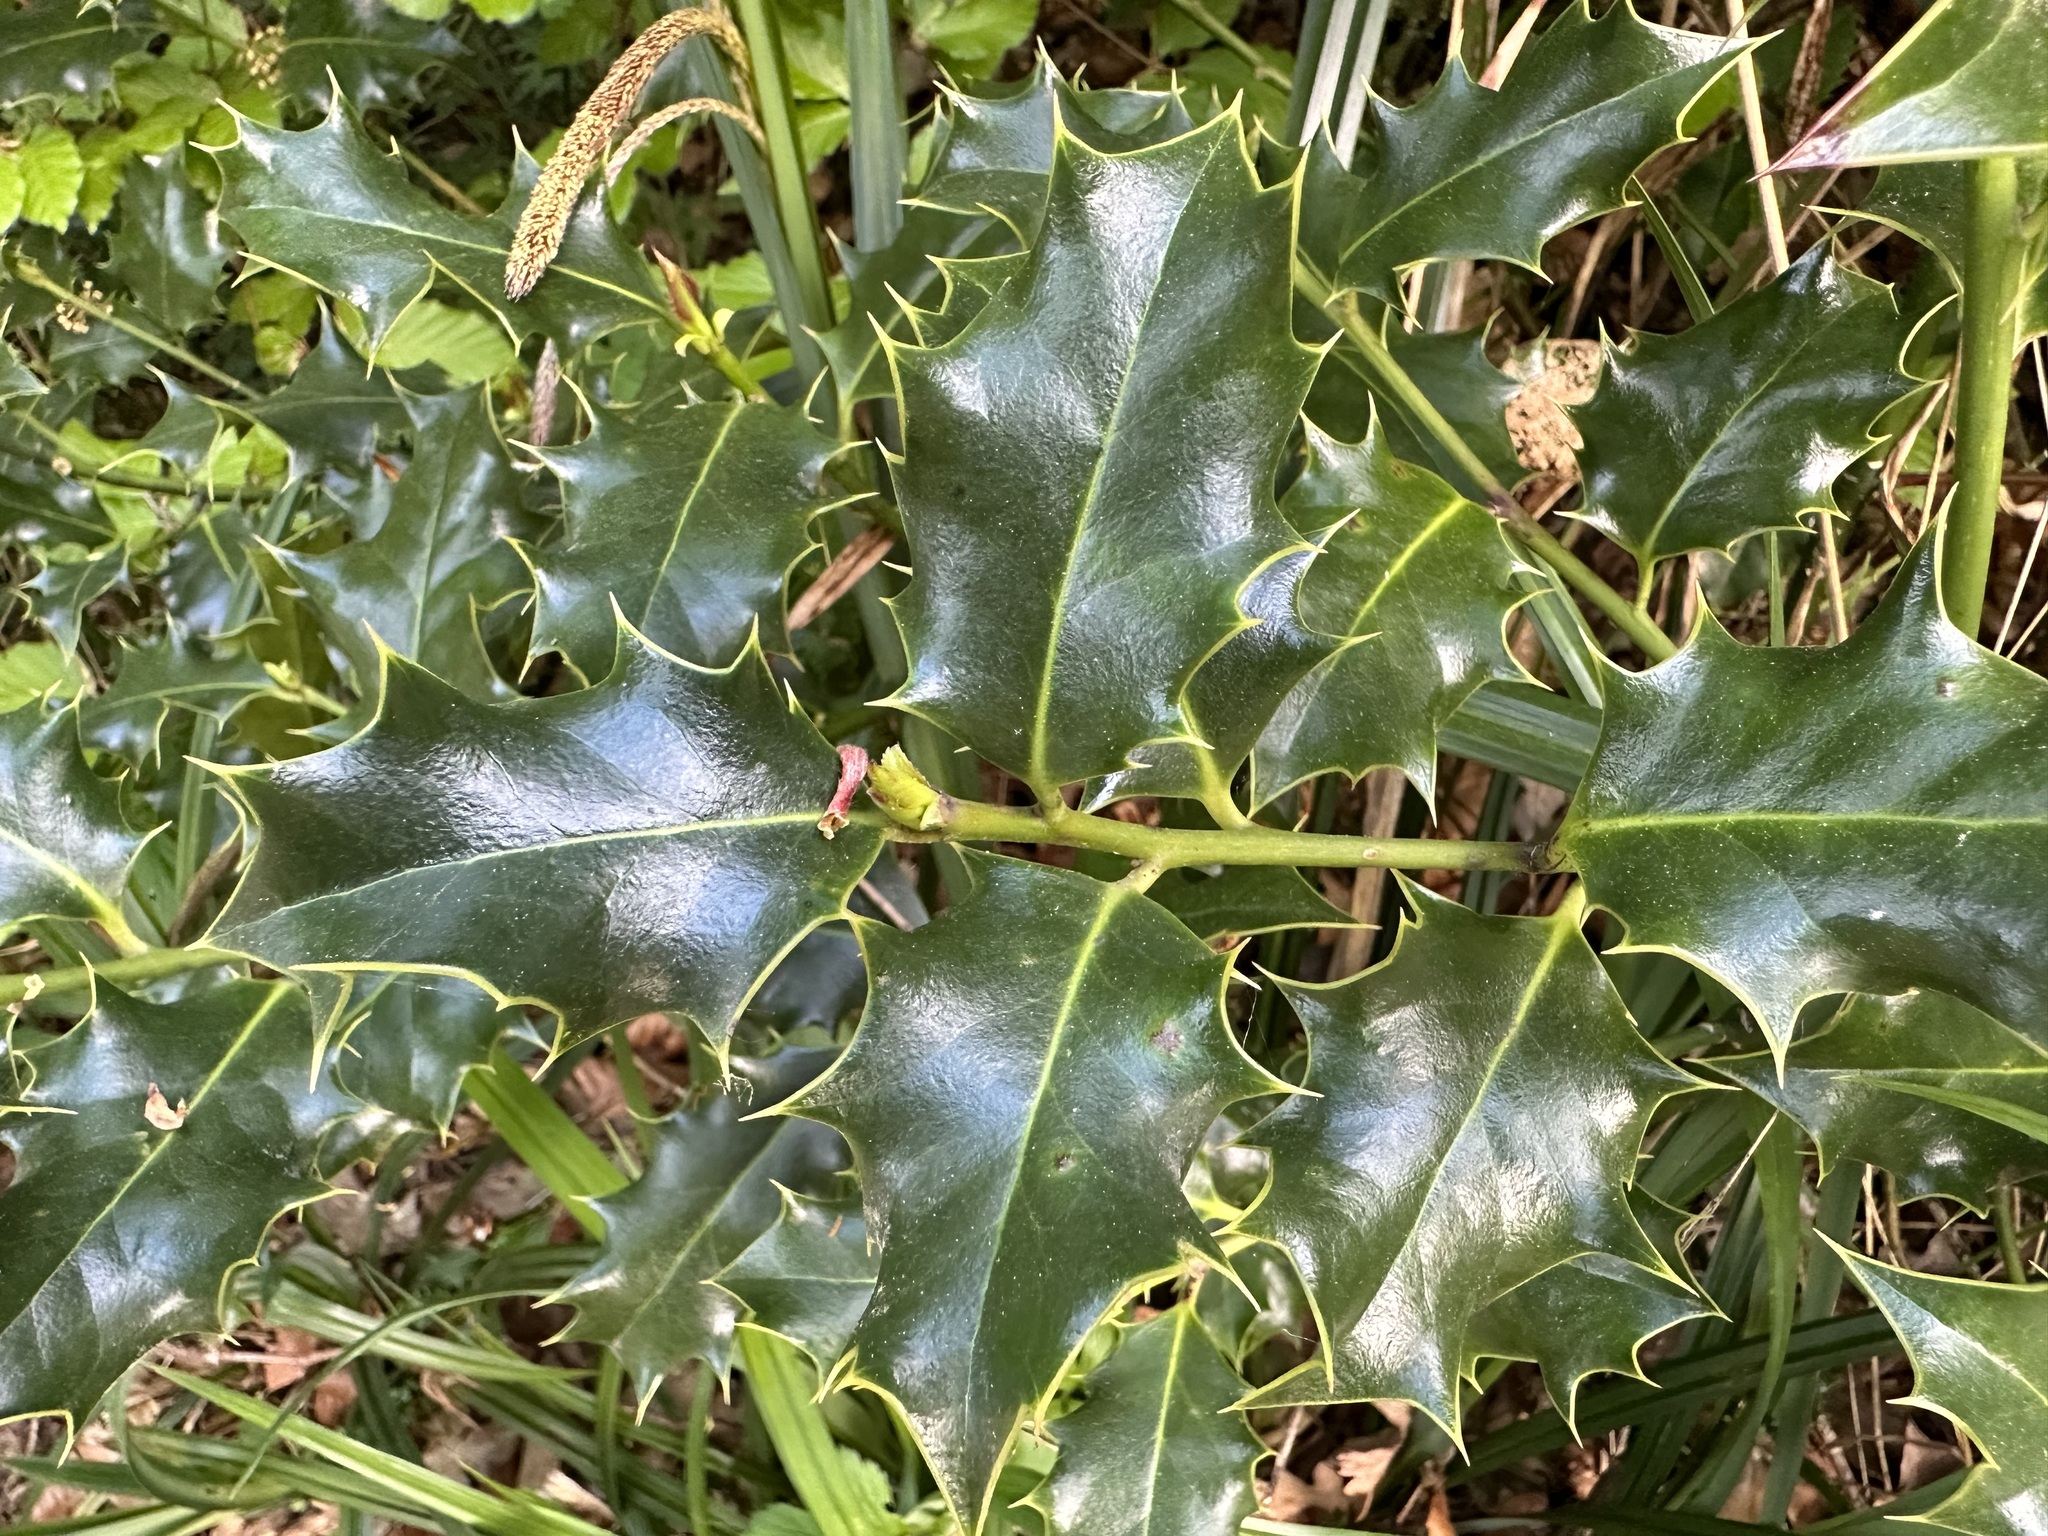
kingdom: Plantae
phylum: Tracheophyta
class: Magnoliopsida
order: Aquifoliales
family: Aquifoliaceae
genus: Ilex
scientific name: Ilex aquifolium
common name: English holly
